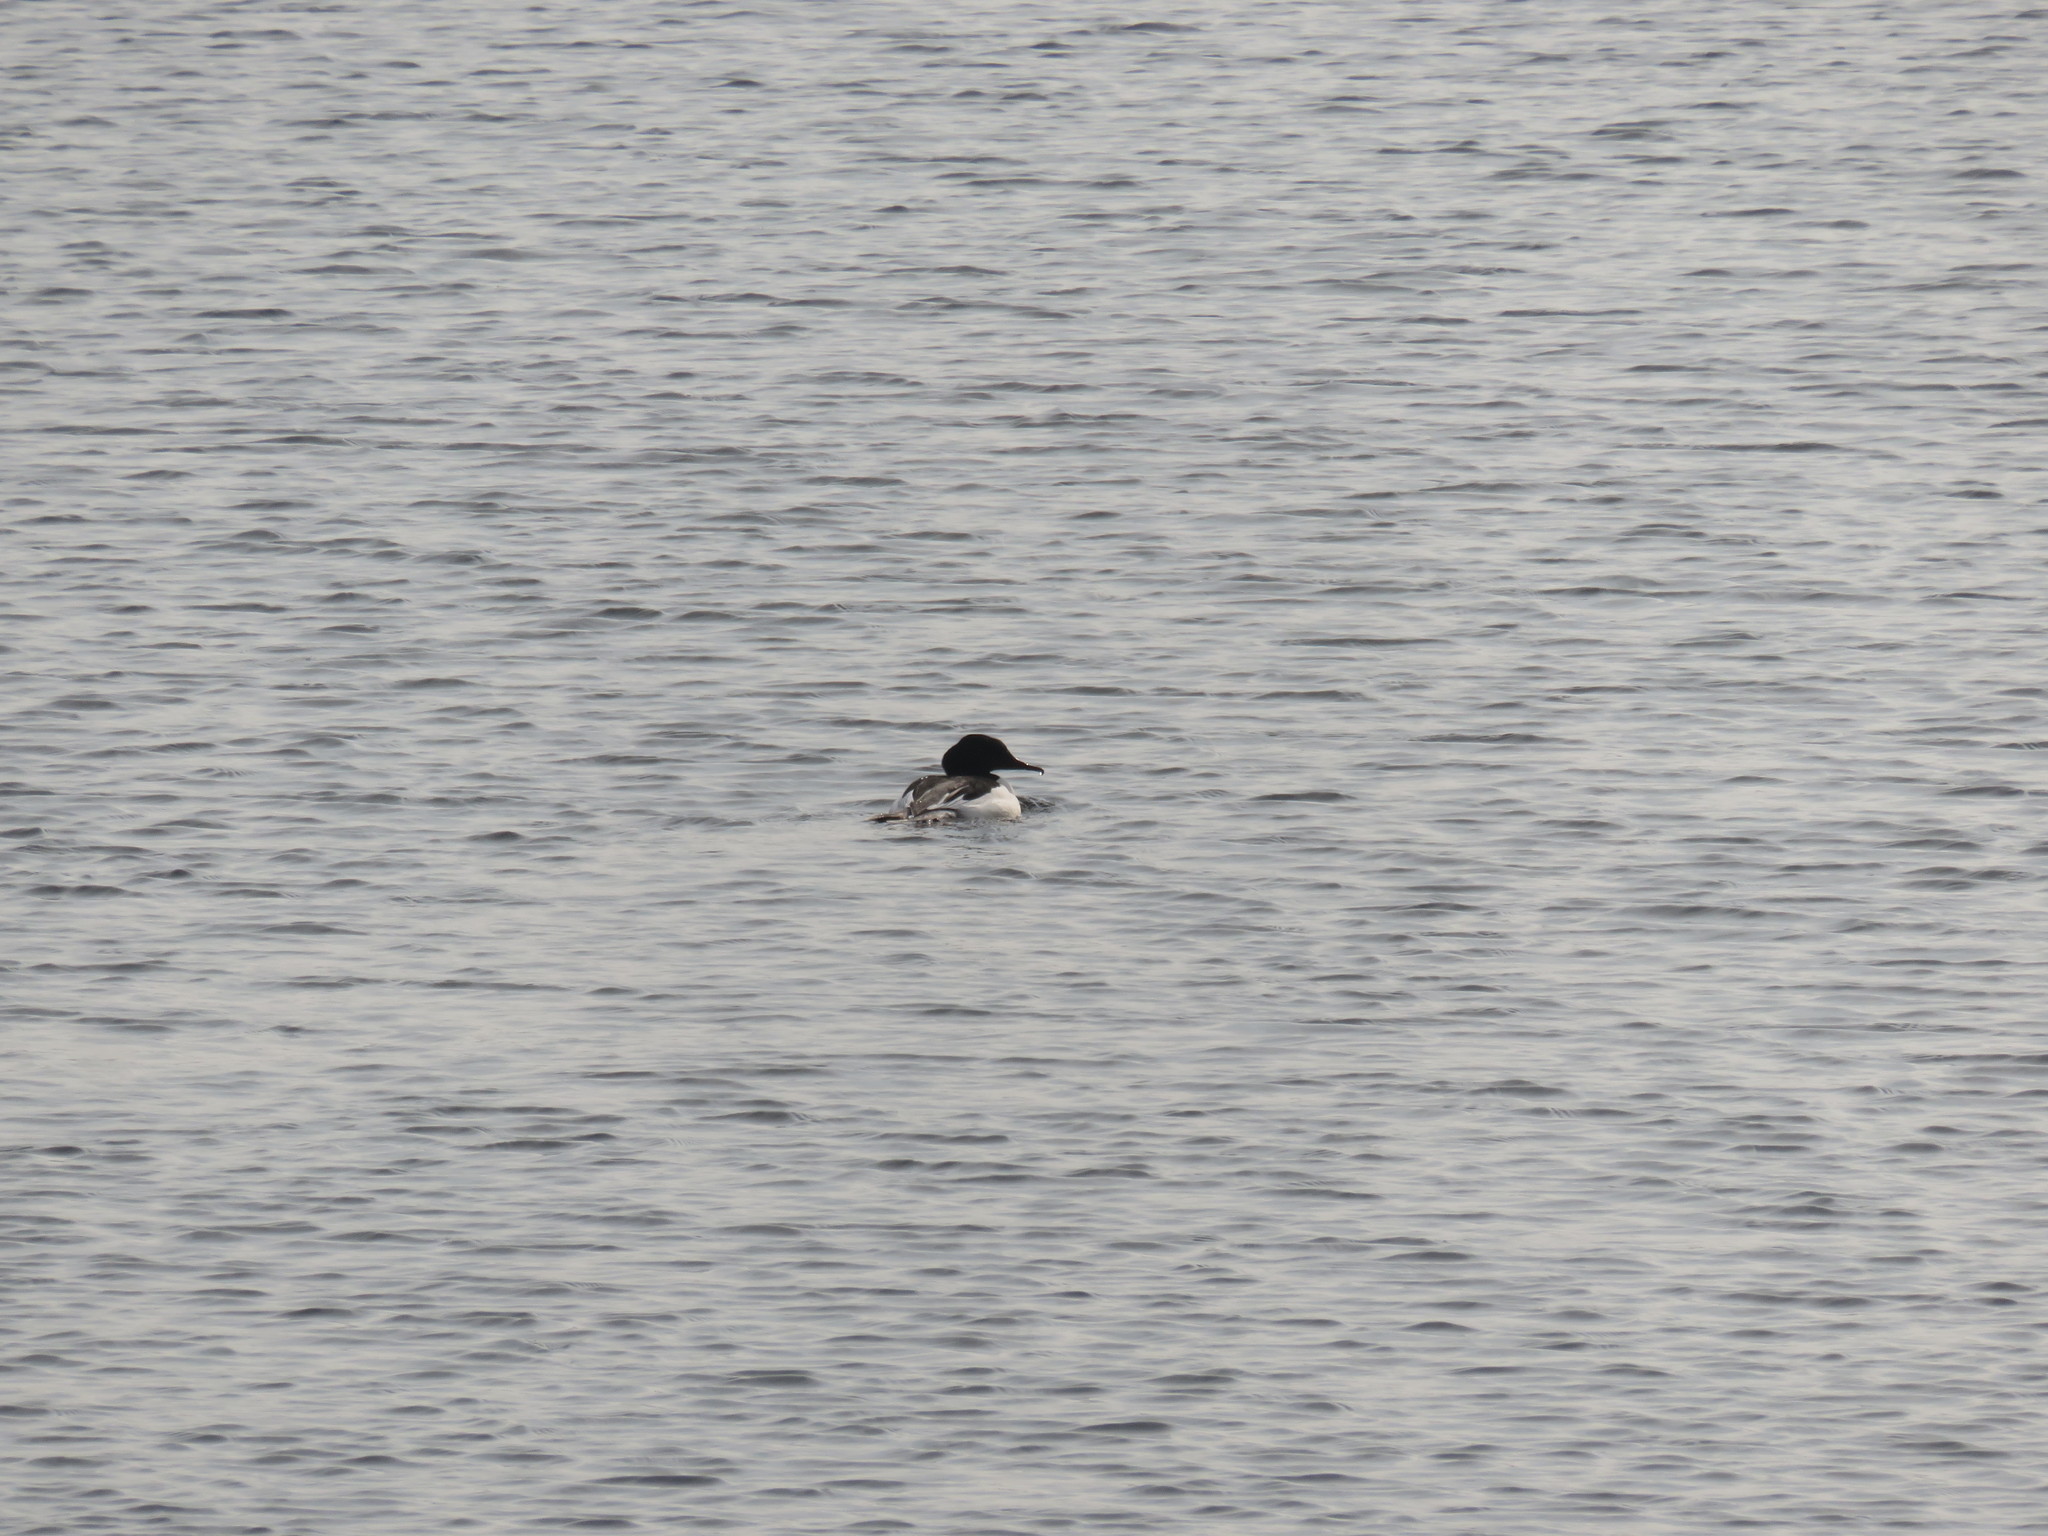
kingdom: Animalia
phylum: Chordata
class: Aves
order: Anseriformes
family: Anatidae
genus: Mergus
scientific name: Mergus merganser
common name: Common merganser
